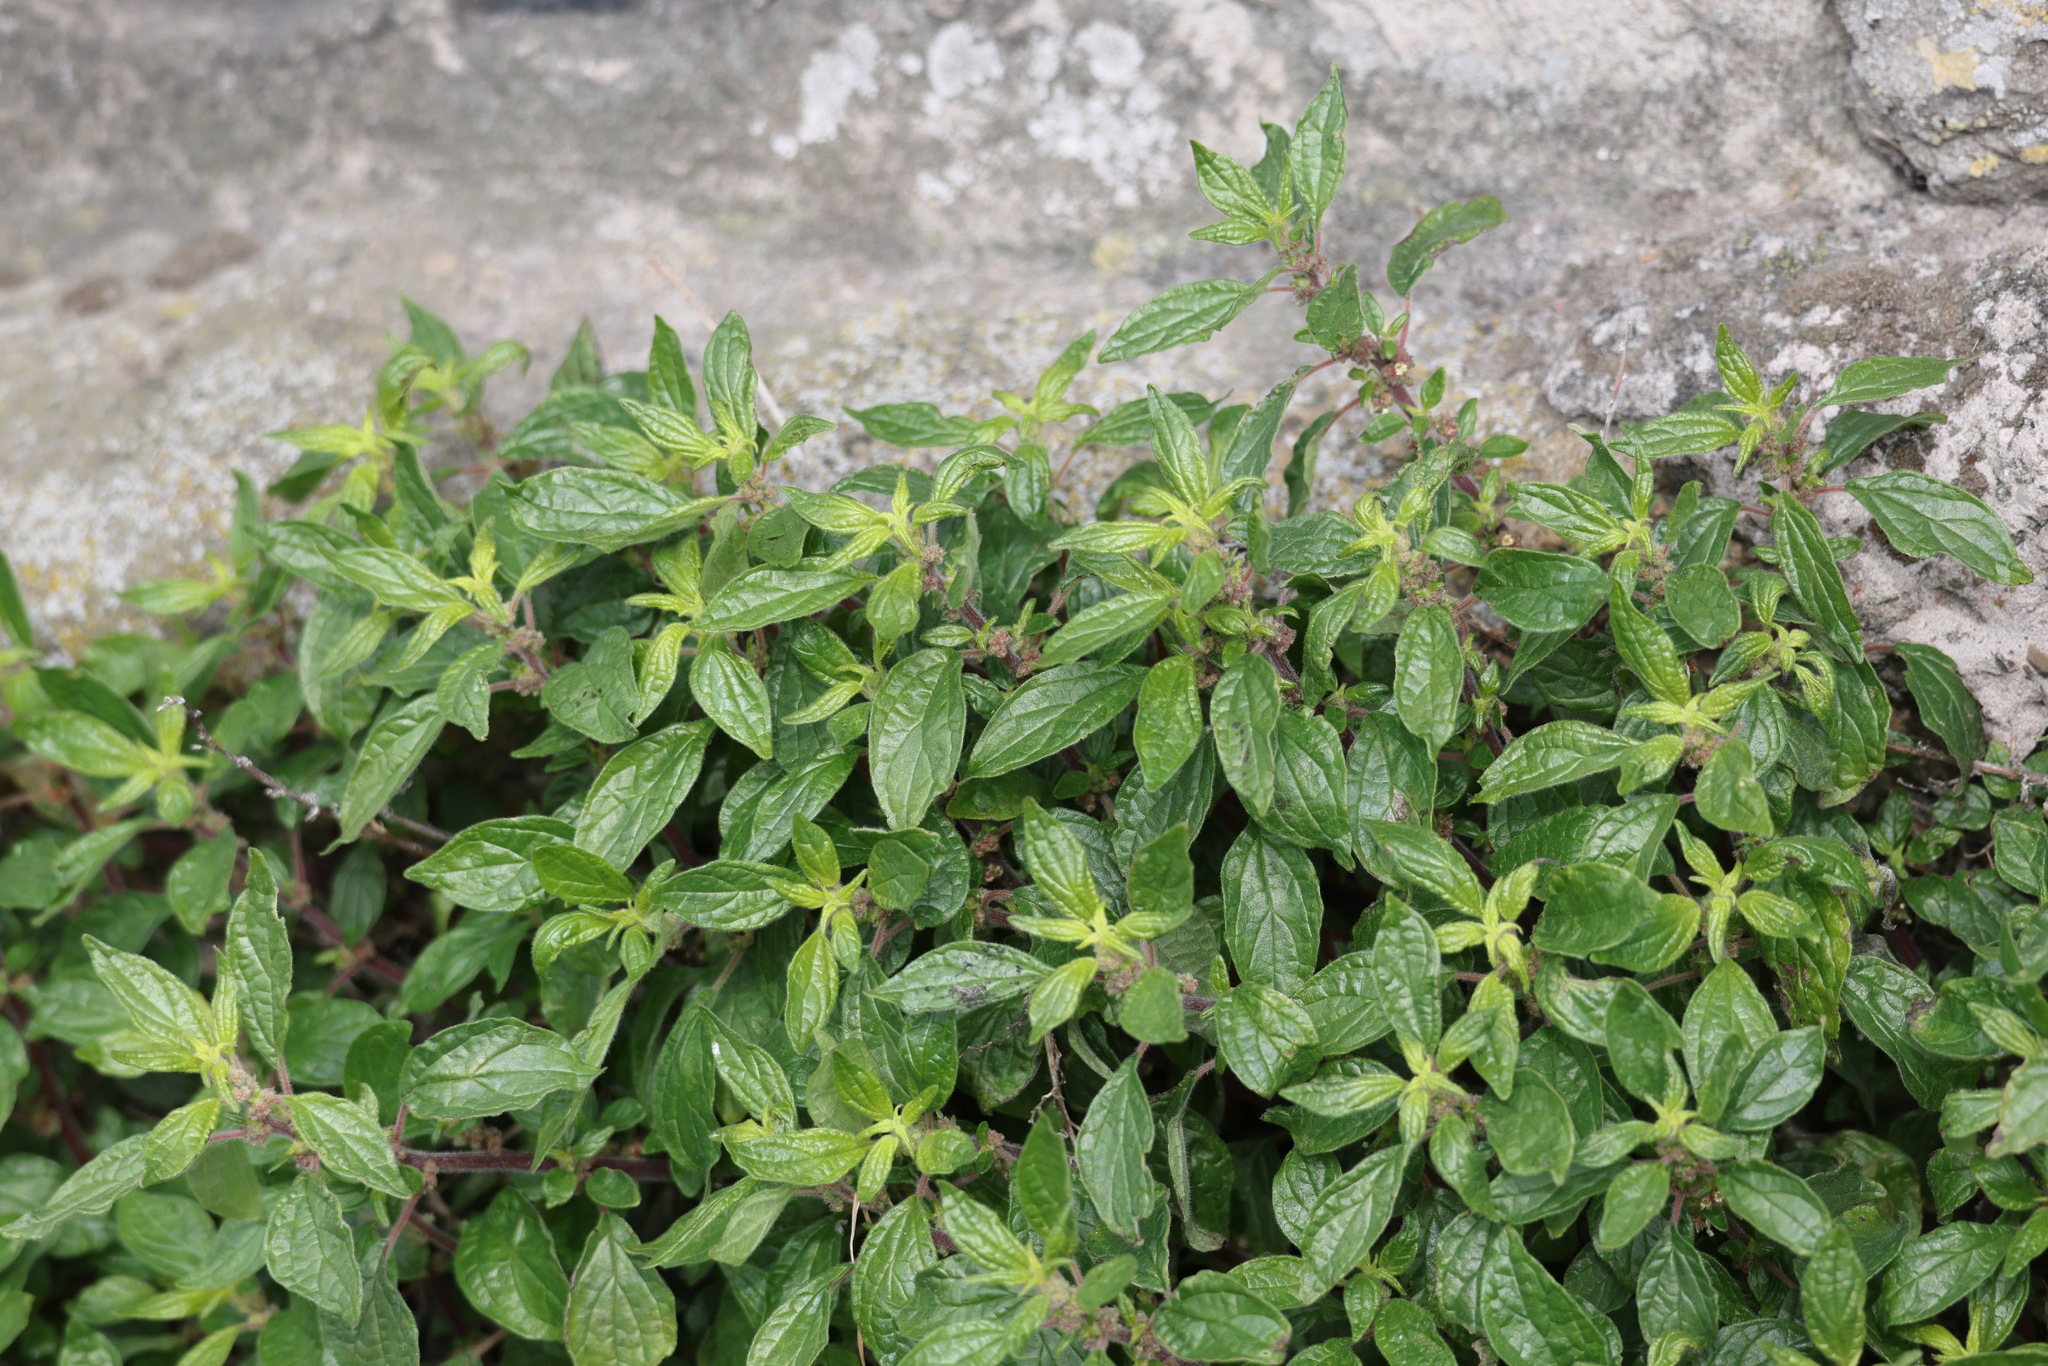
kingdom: Plantae
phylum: Tracheophyta
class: Magnoliopsida
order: Rosales
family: Urticaceae
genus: Parietaria
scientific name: Parietaria judaica
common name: Pellitory-of-the-wall
